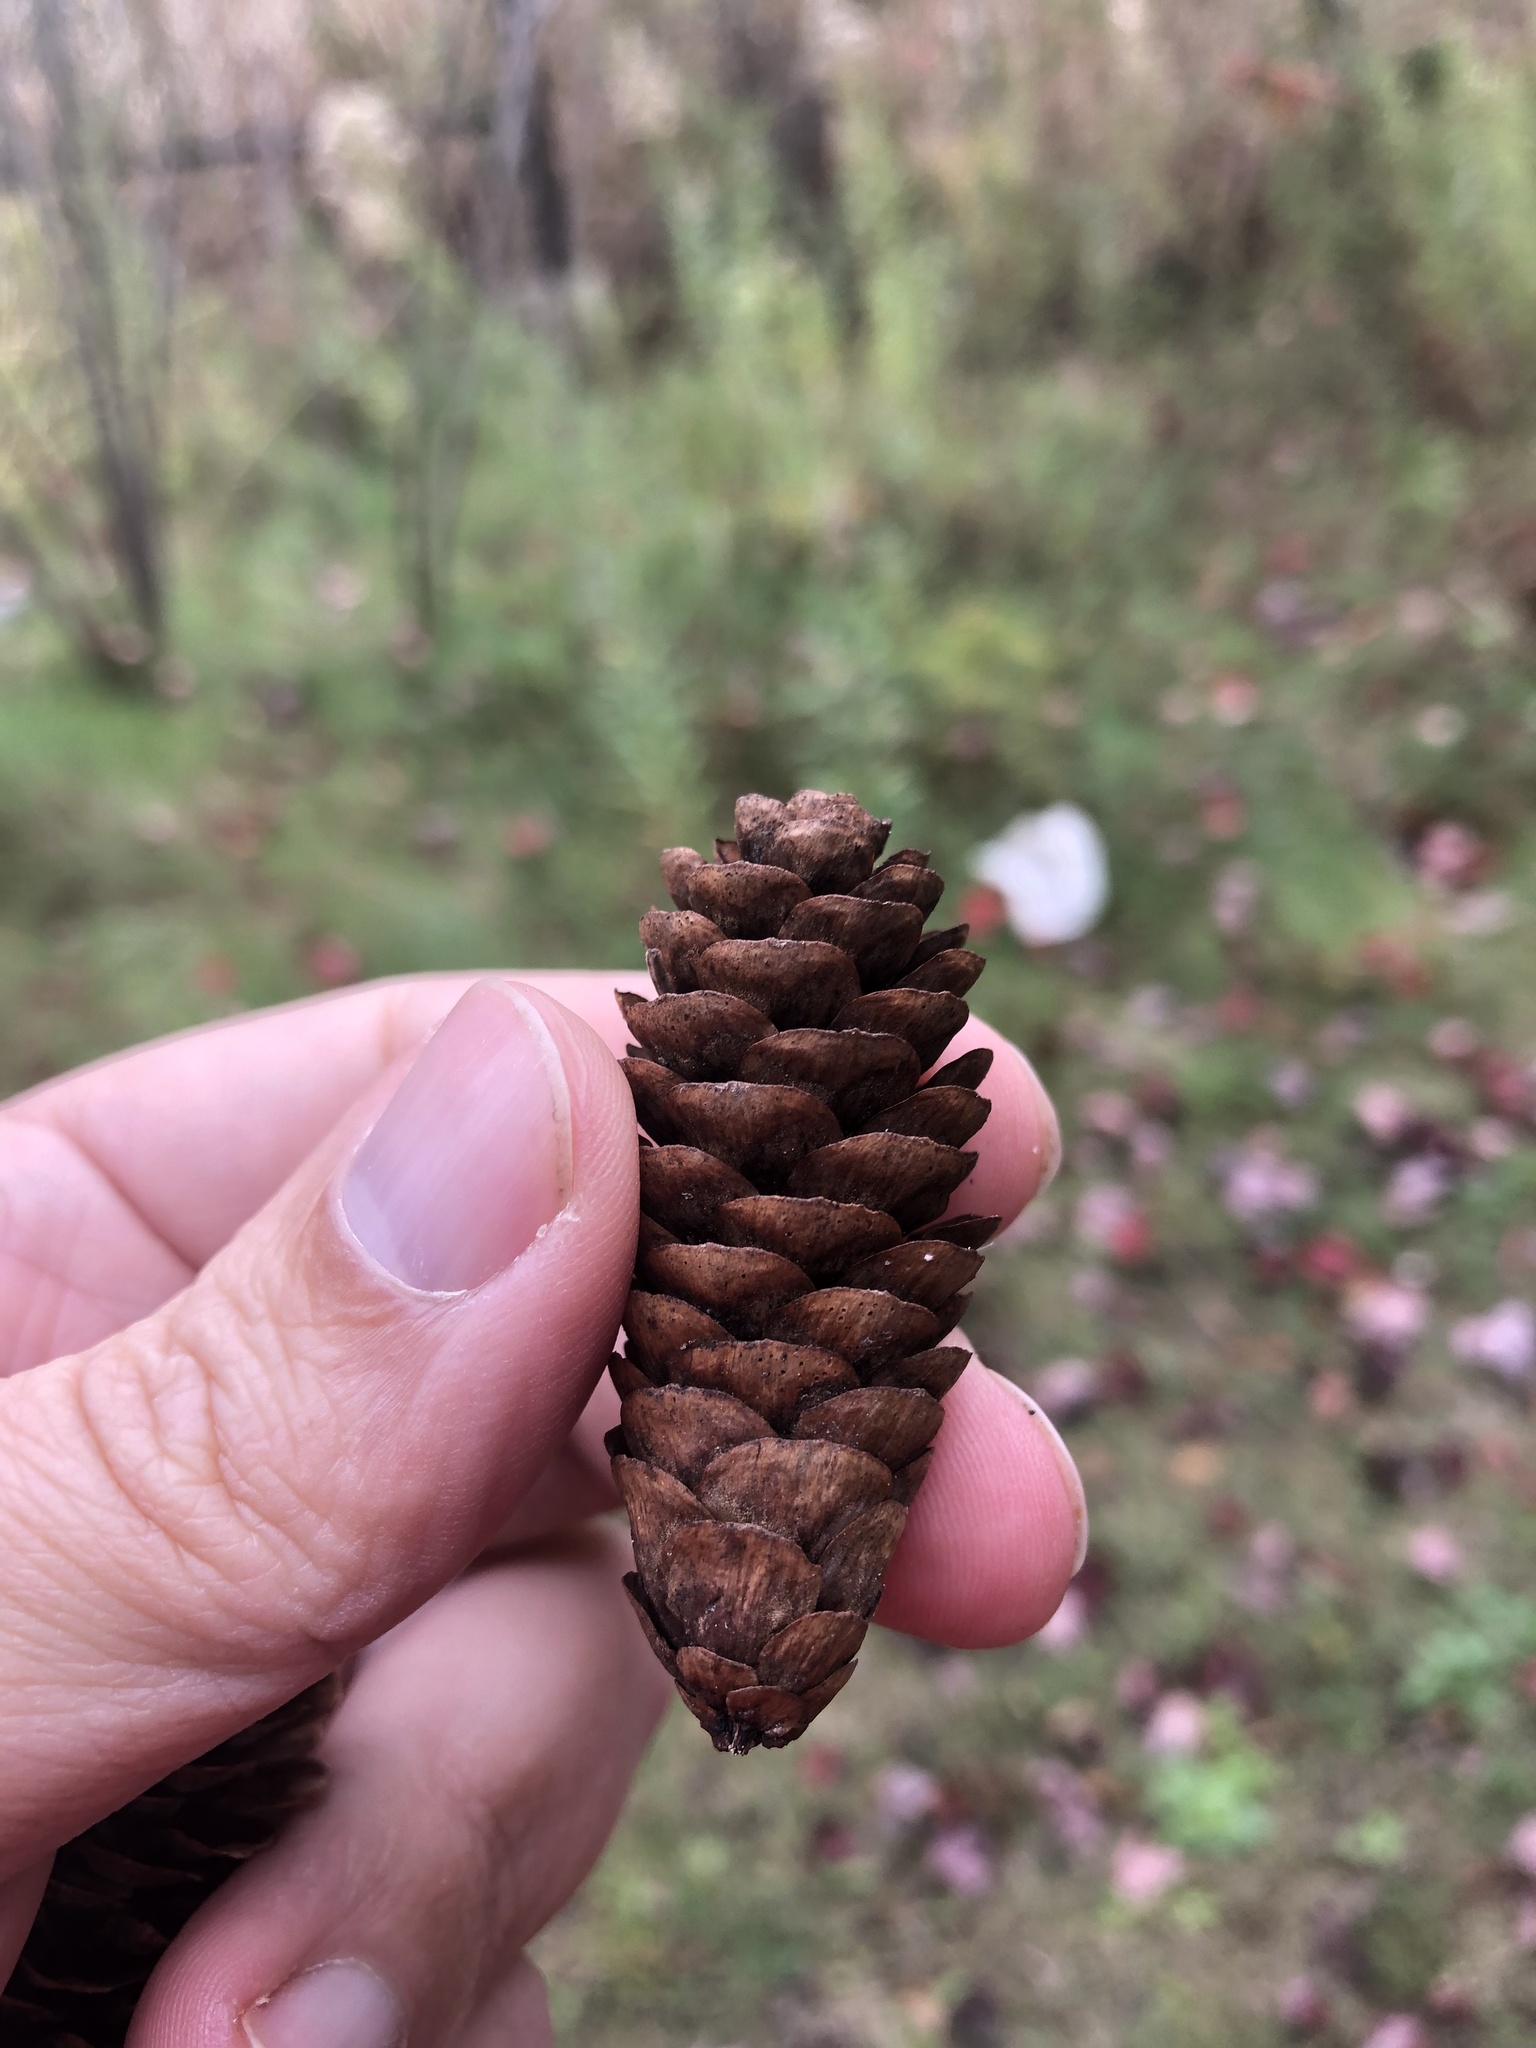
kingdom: Plantae
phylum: Tracheophyta
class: Pinopsida
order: Pinales
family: Pinaceae
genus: Picea
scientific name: Picea glauca
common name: White spruce
